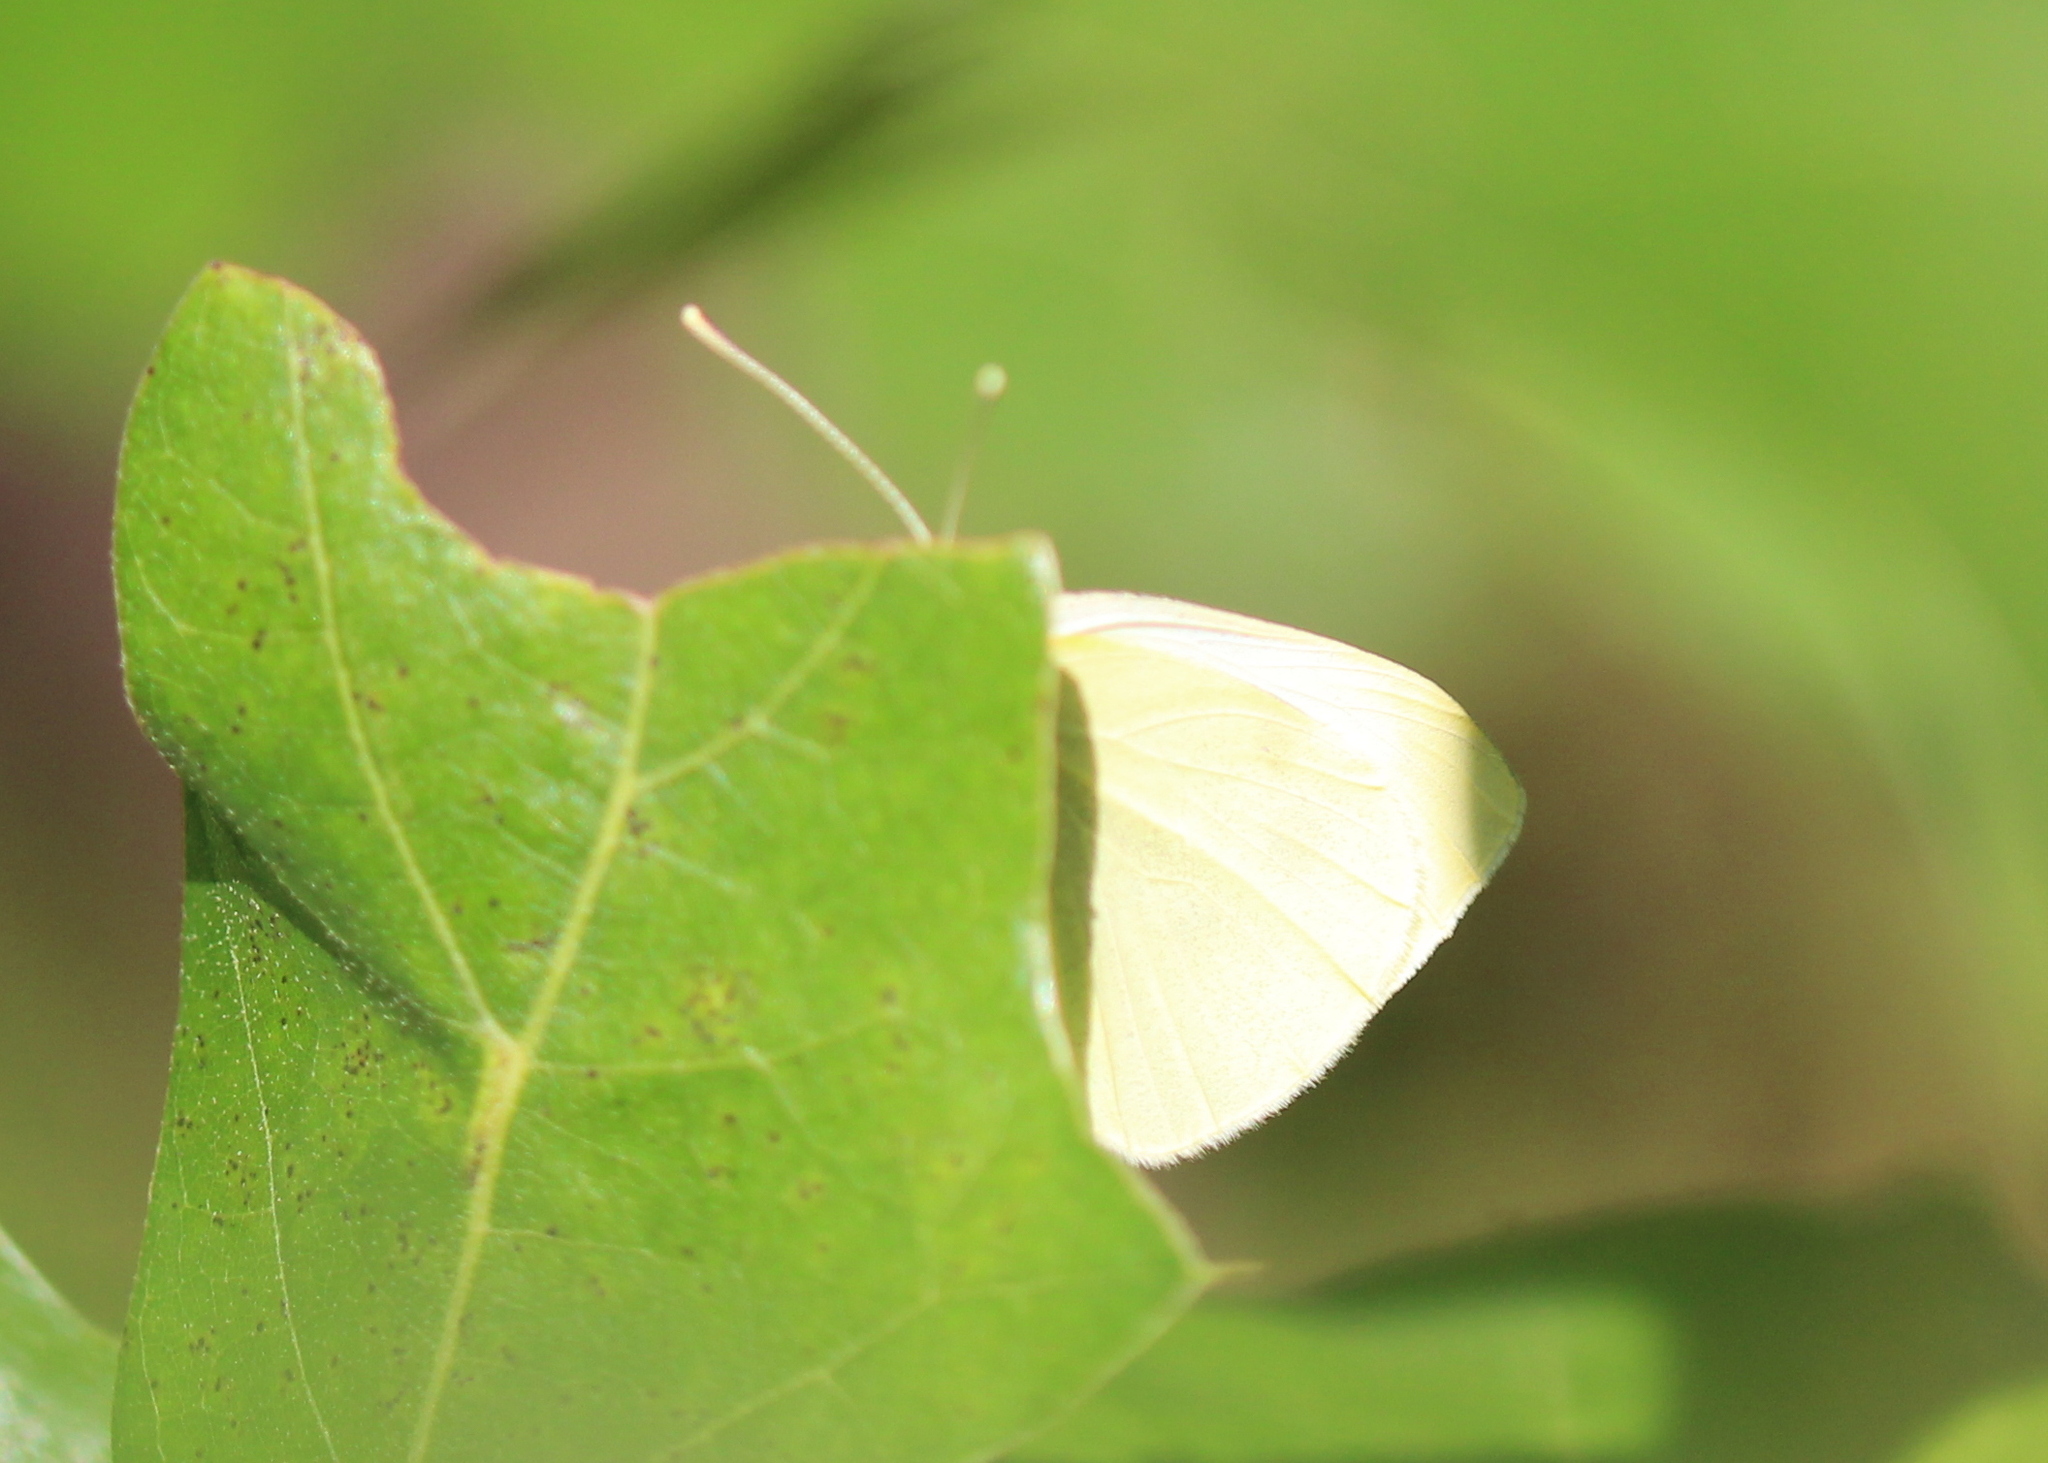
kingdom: Animalia
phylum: Arthropoda
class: Insecta
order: Lepidoptera
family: Pieridae
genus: Pieris
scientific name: Pieris rapae
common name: Small white
